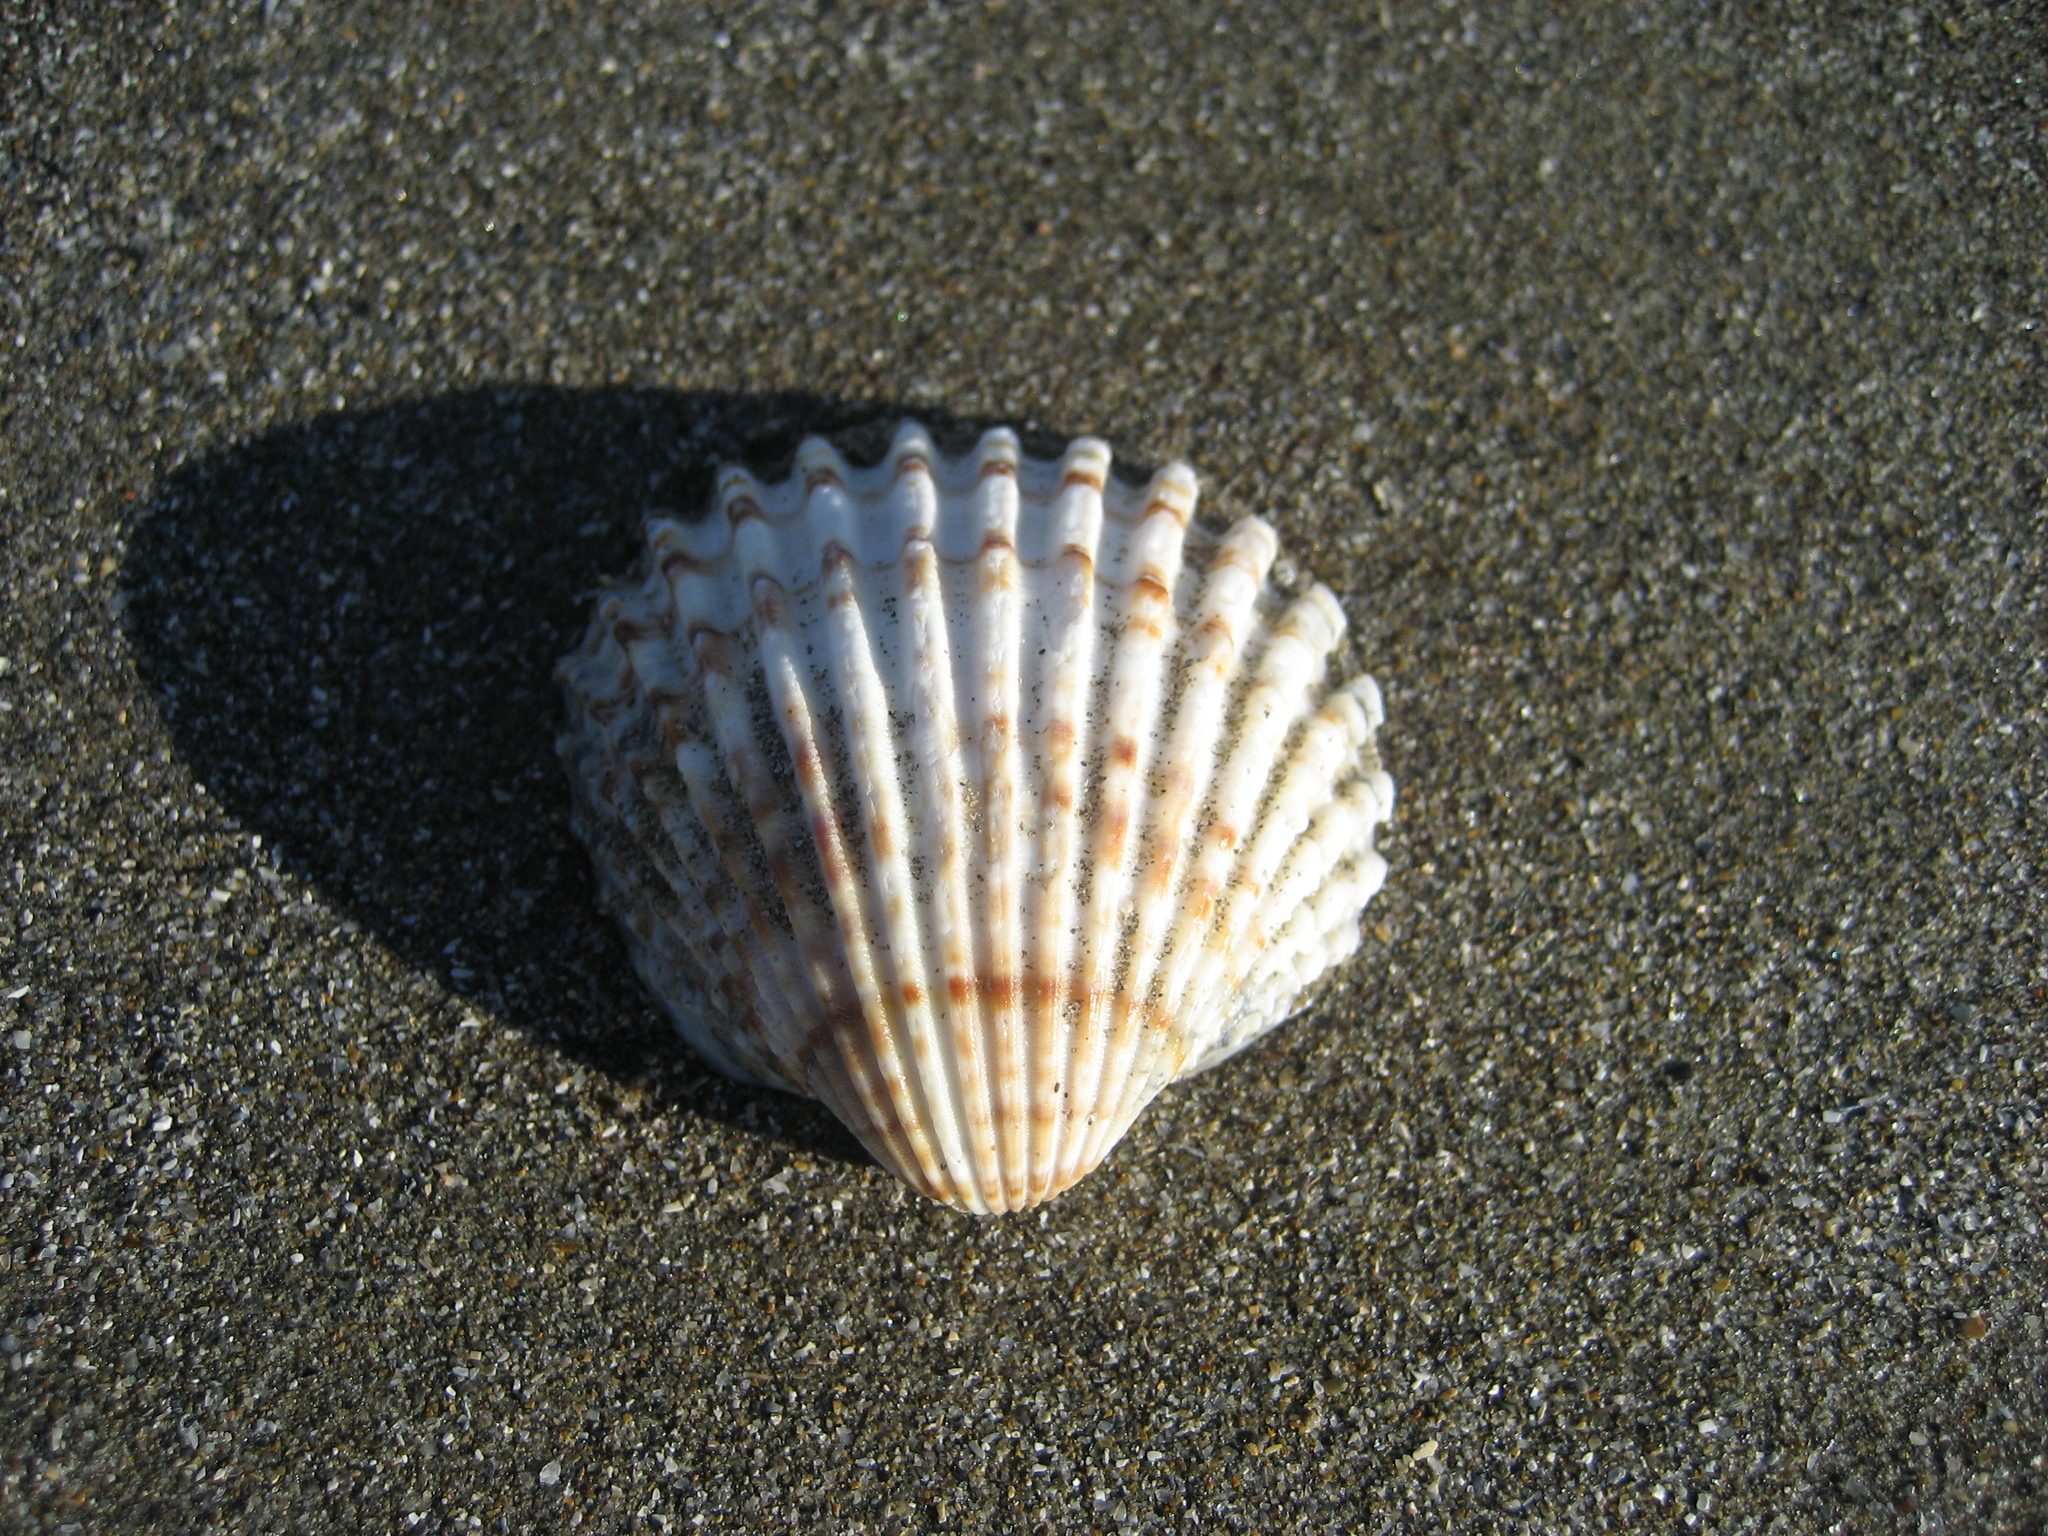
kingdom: Animalia
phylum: Mollusca
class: Bivalvia
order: Cardiida
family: Cardiidae
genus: Acanthocardia
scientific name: Acanthocardia tuberculata
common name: Rough cockle
